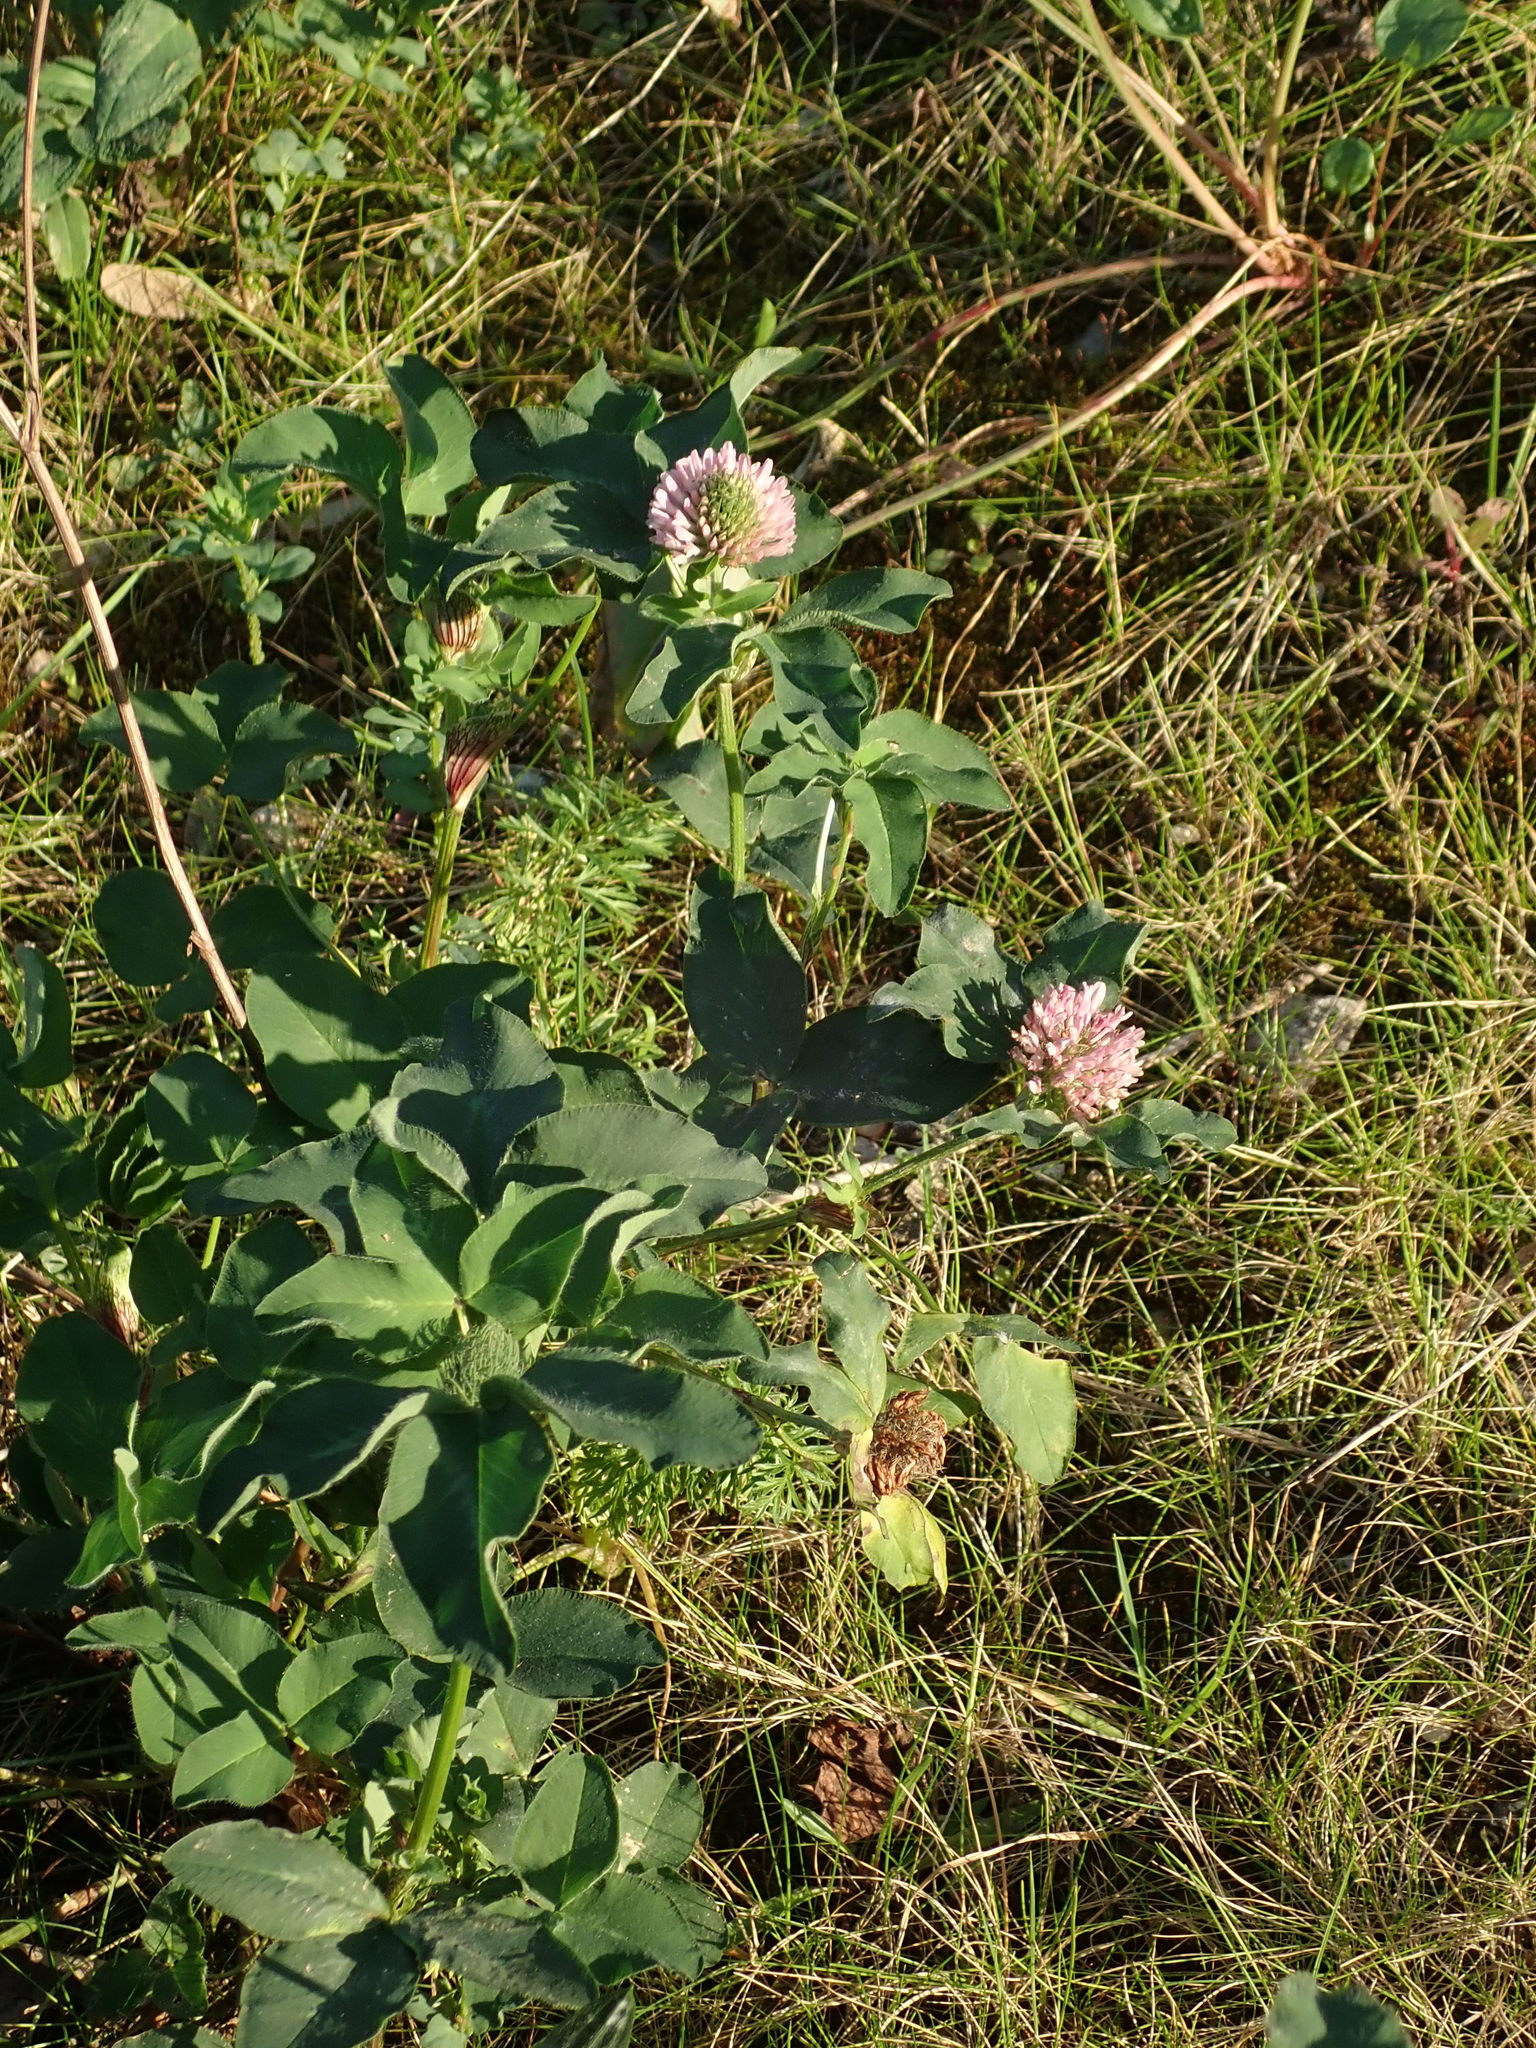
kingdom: Plantae
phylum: Tracheophyta
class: Magnoliopsida
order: Fabales
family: Fabaceae
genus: Trifolium
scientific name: Trifolium pratense
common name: Red clover
